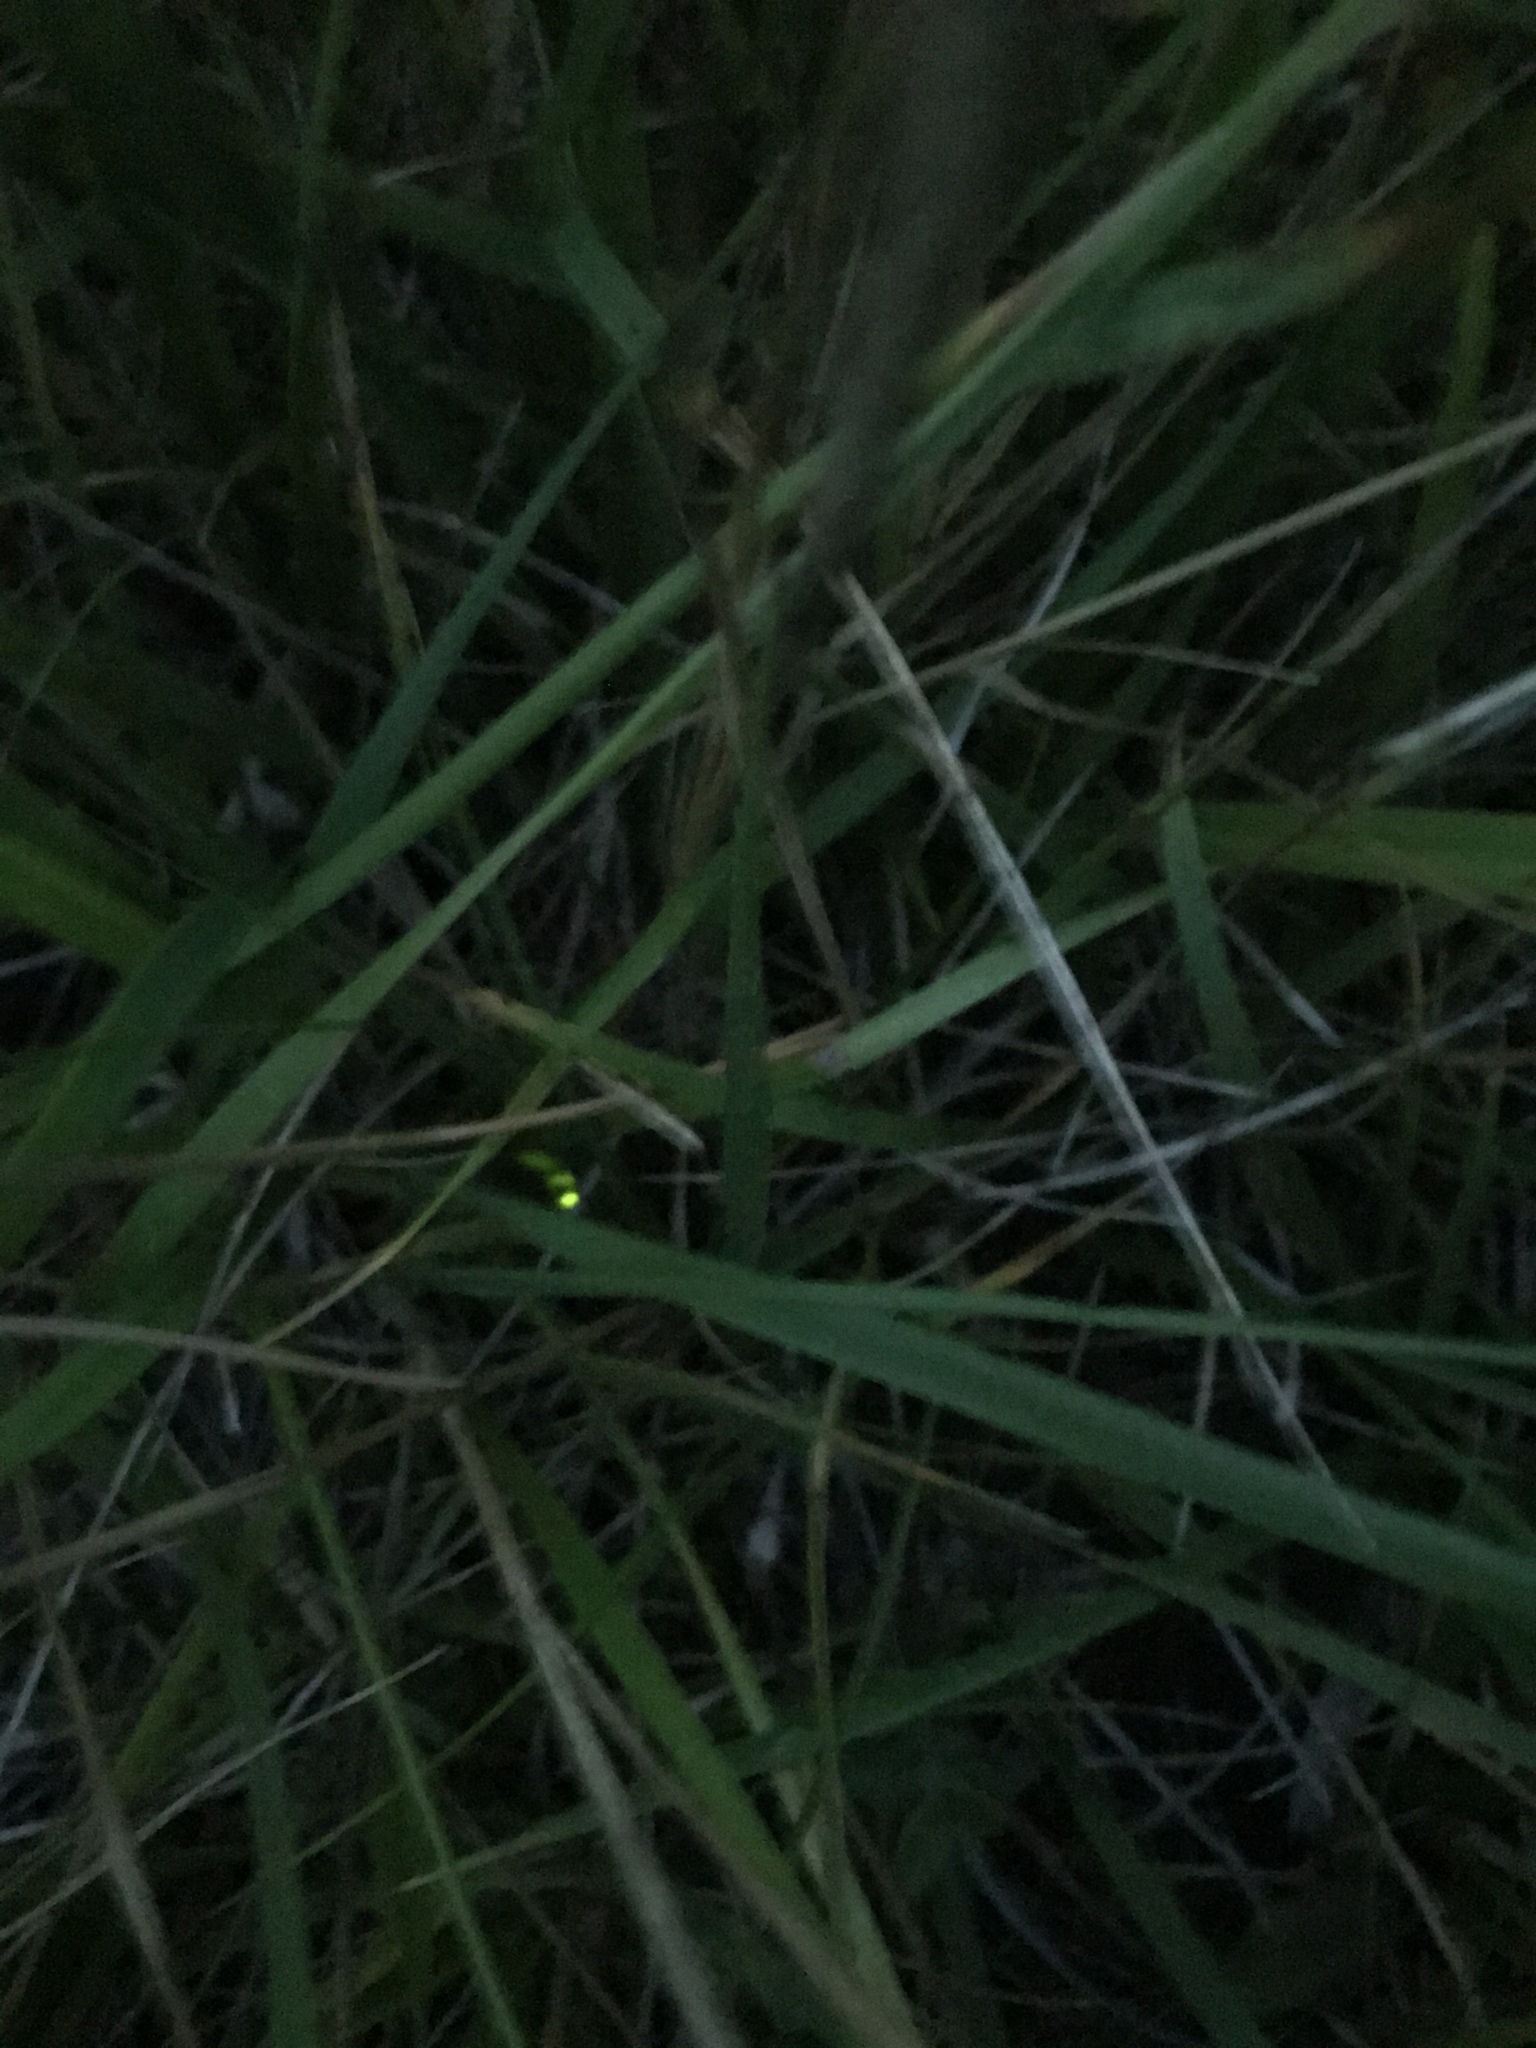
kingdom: Animalia
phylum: Arthropoda
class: Insecta
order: Coleoptera
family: Lampyridae
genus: Lampyris
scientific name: Lampyris noctiluca
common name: Glow-worm
